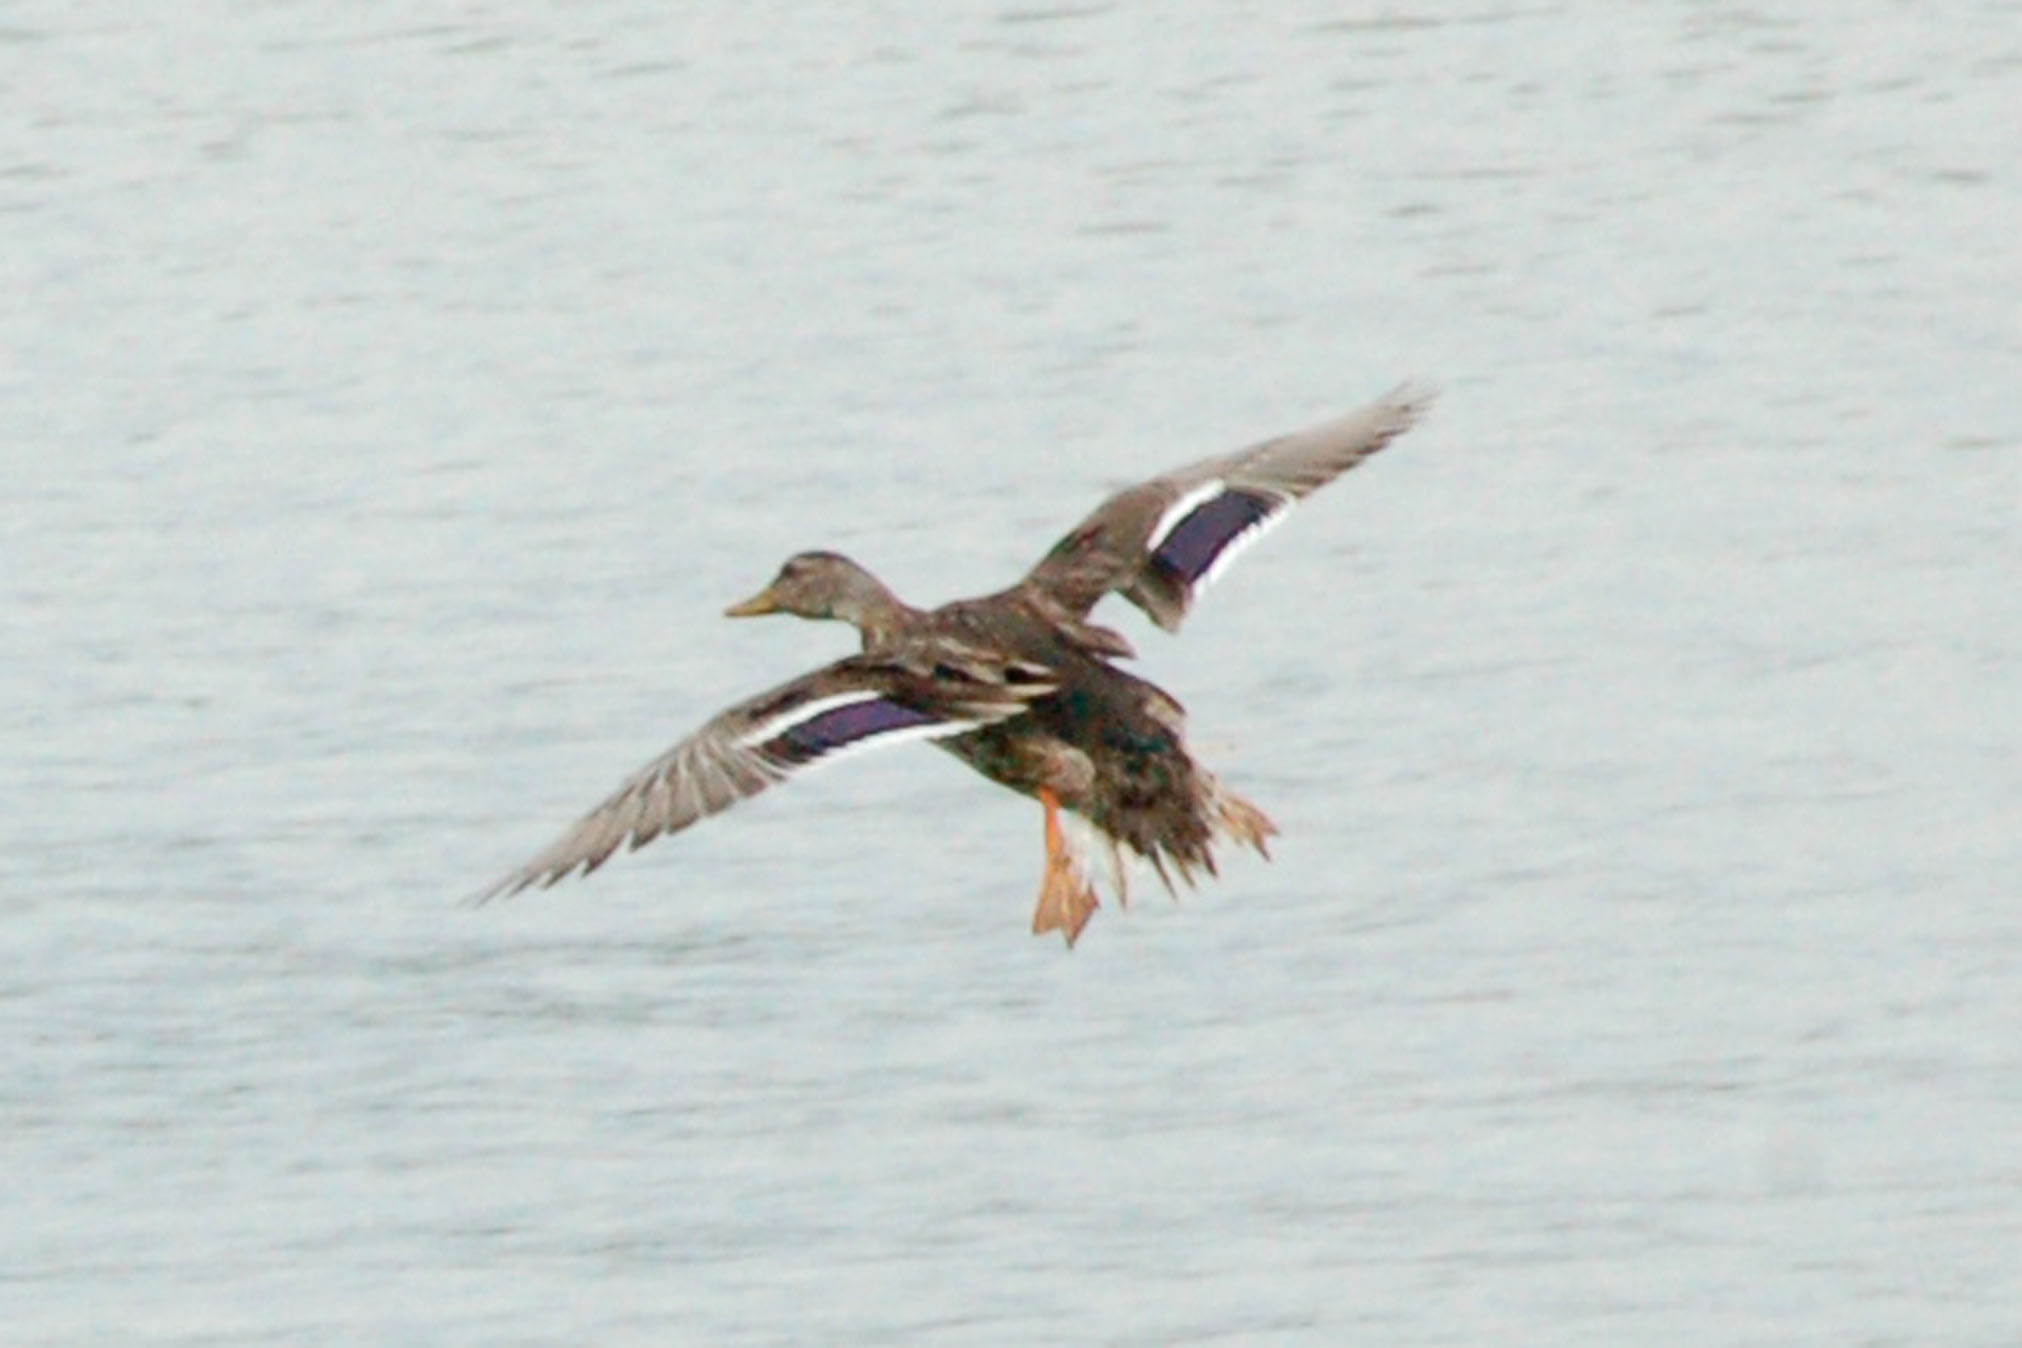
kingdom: Animalia
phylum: Chordata
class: Aves
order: Anseriformes
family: Anatidae
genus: Anas
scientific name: Anas platyrhynchos
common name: Mallard
